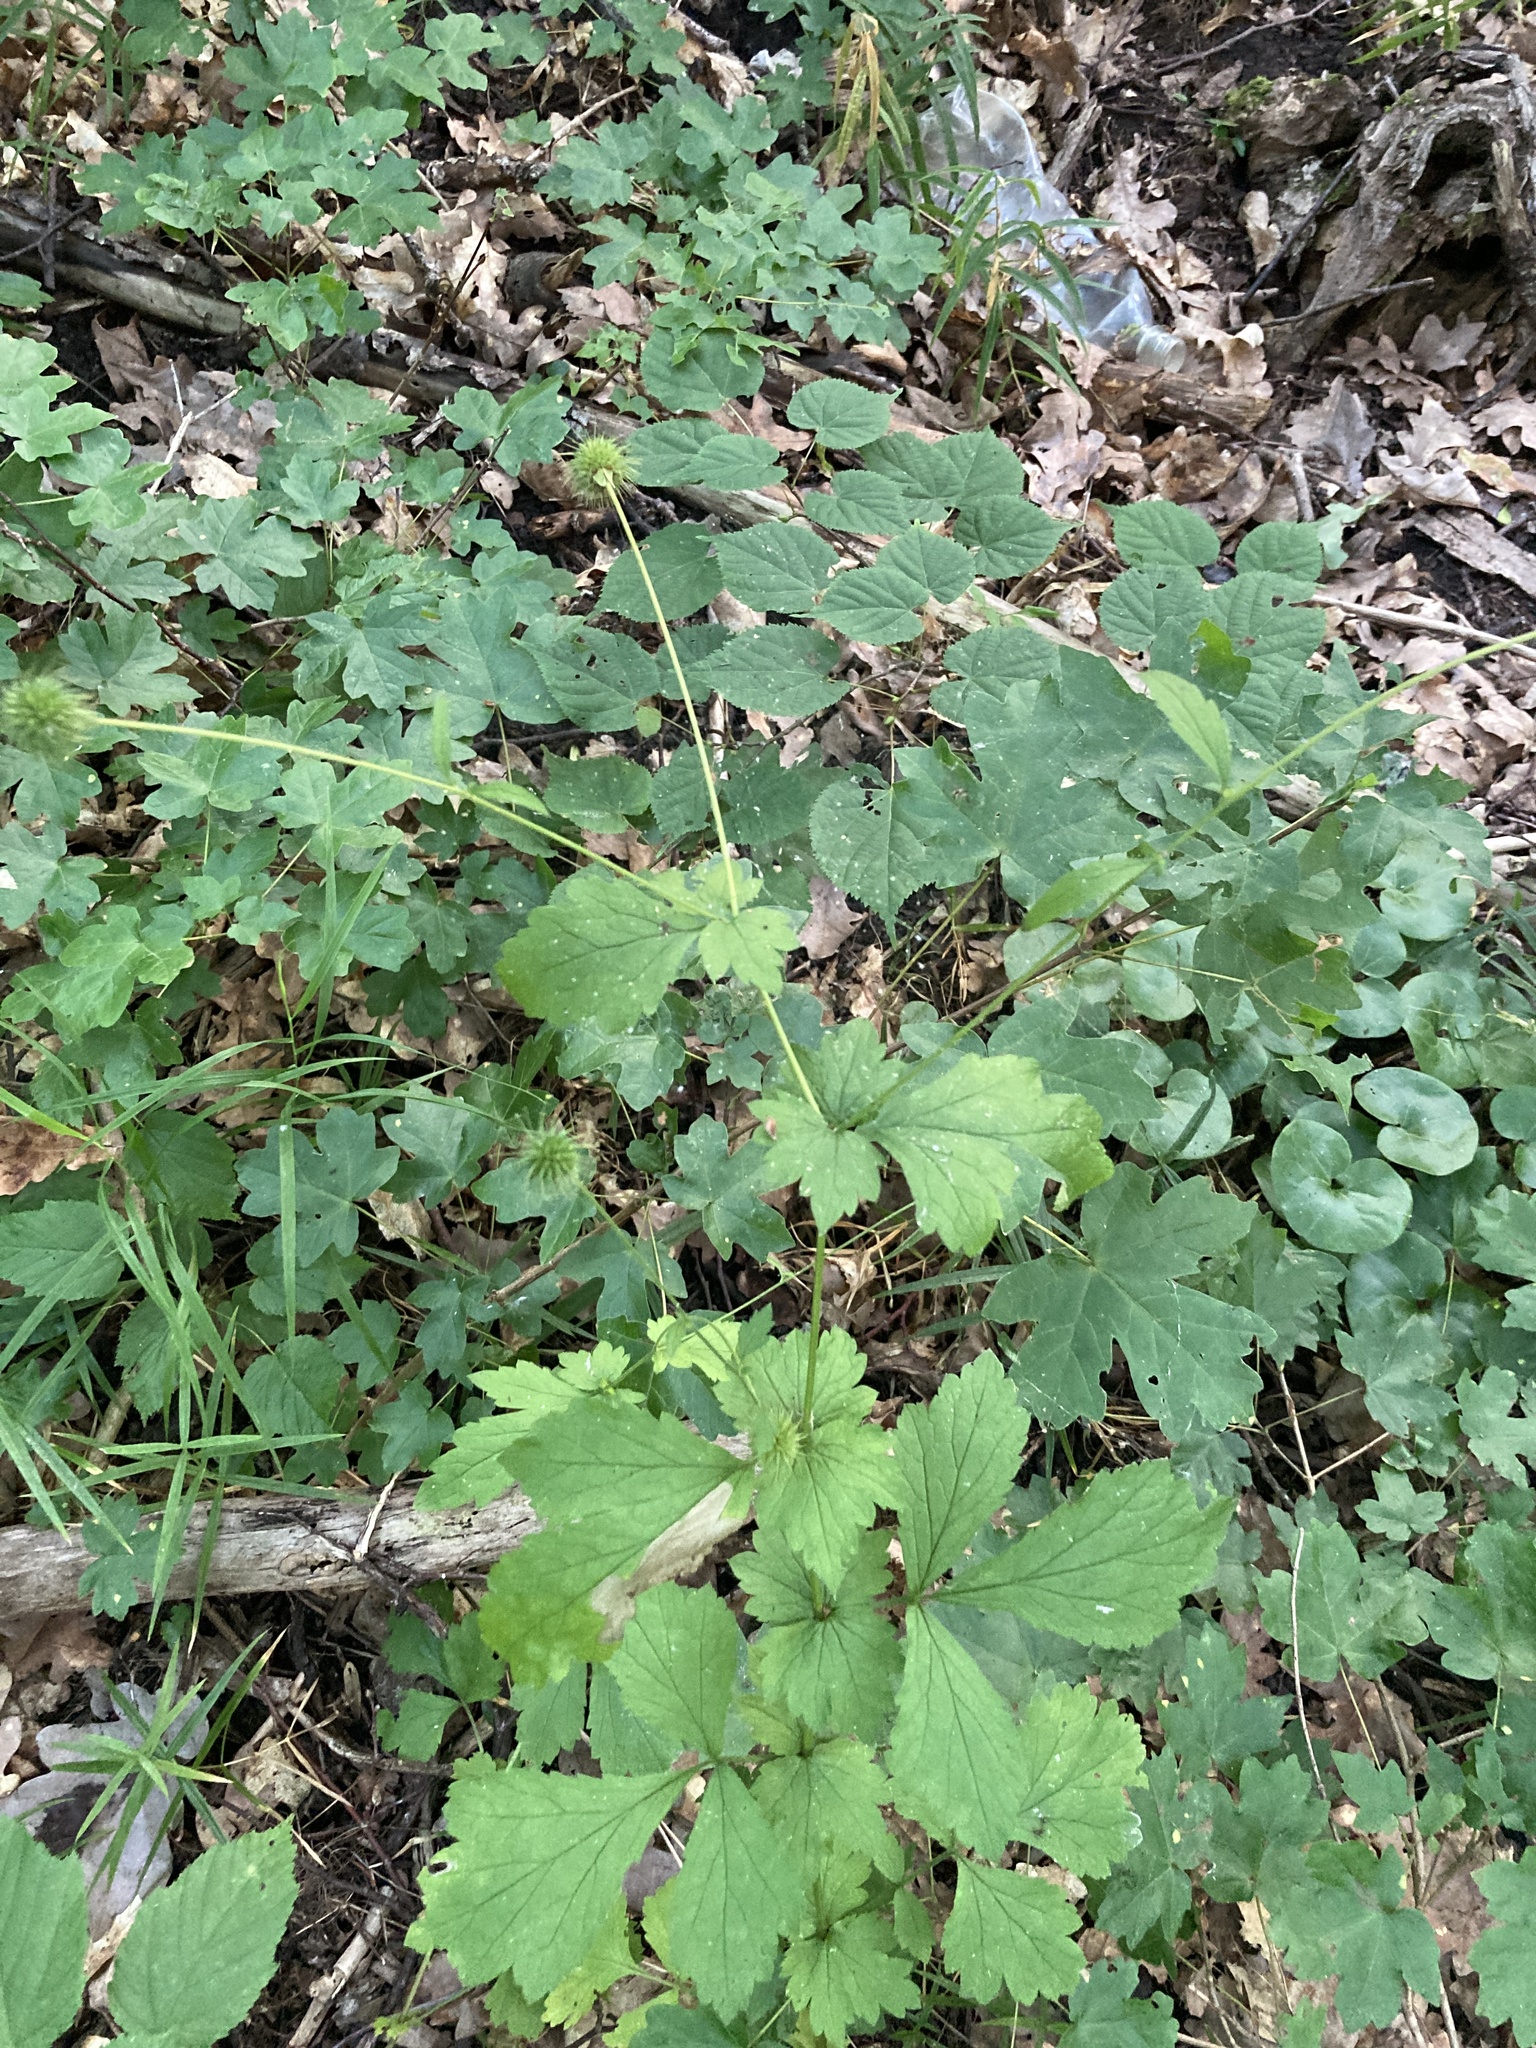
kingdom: Plantae
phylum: Tracheophyta
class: Magnoliopsida
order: Rosales
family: Rosaceae
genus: Geum
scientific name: Geum urbanum
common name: Wood avens
